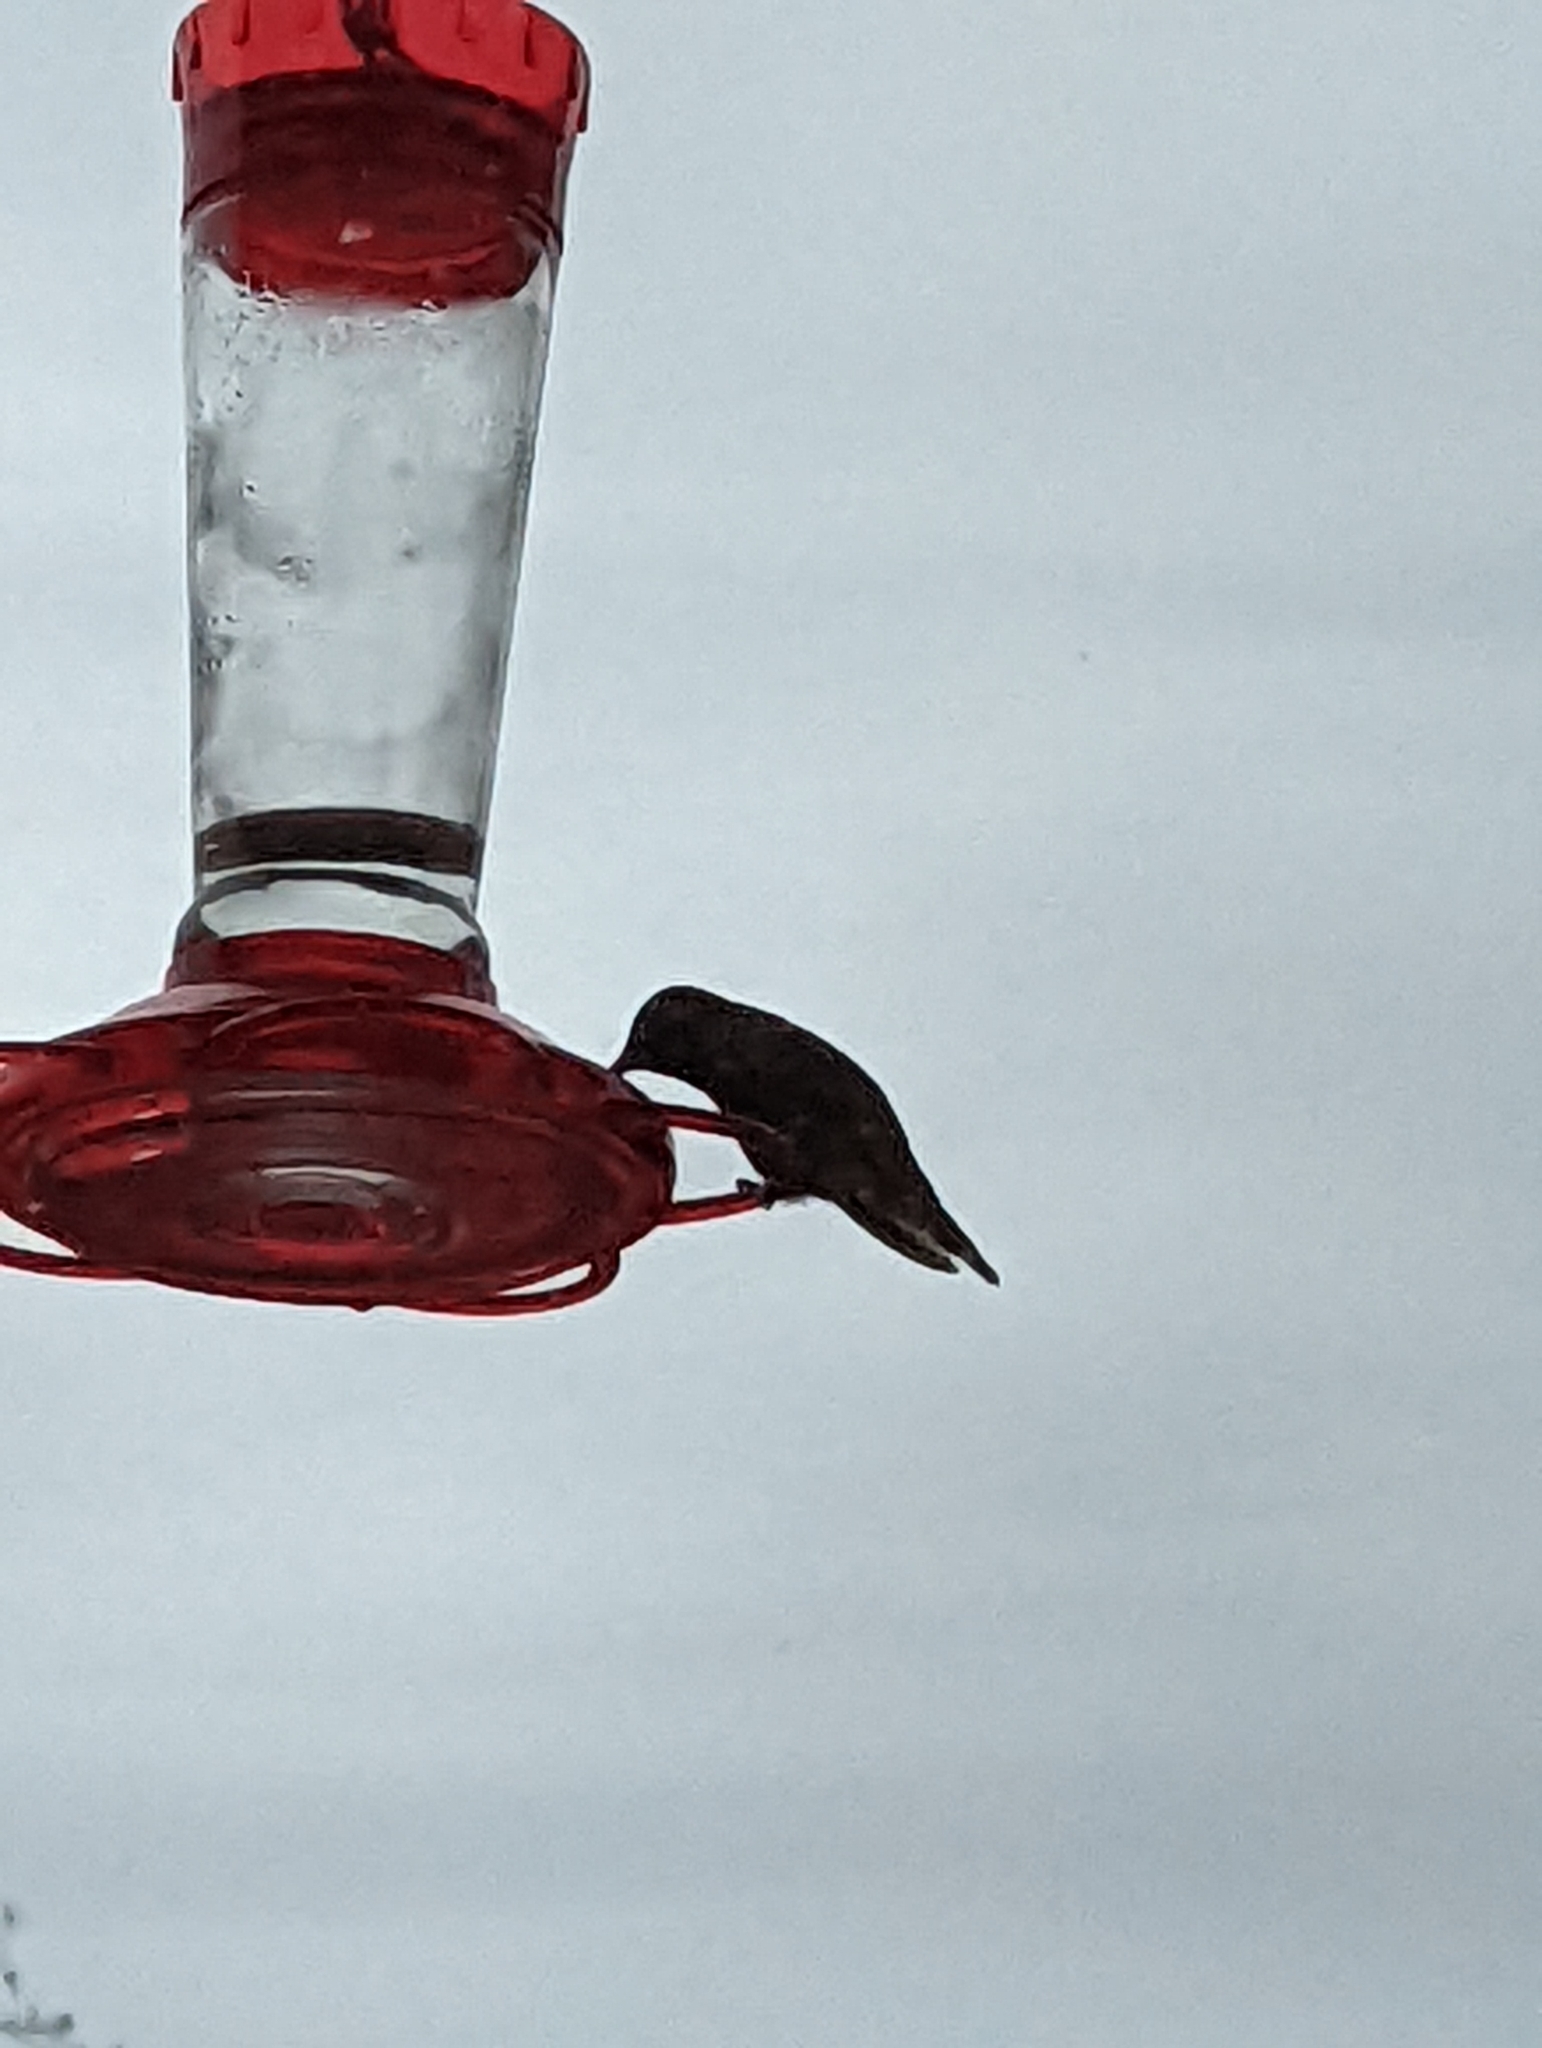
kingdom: Animalia
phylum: Chordata
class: Aves
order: Apodiformes
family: Trochilidae
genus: Calypte
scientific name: Calypte anna
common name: Anna's hummingbird
